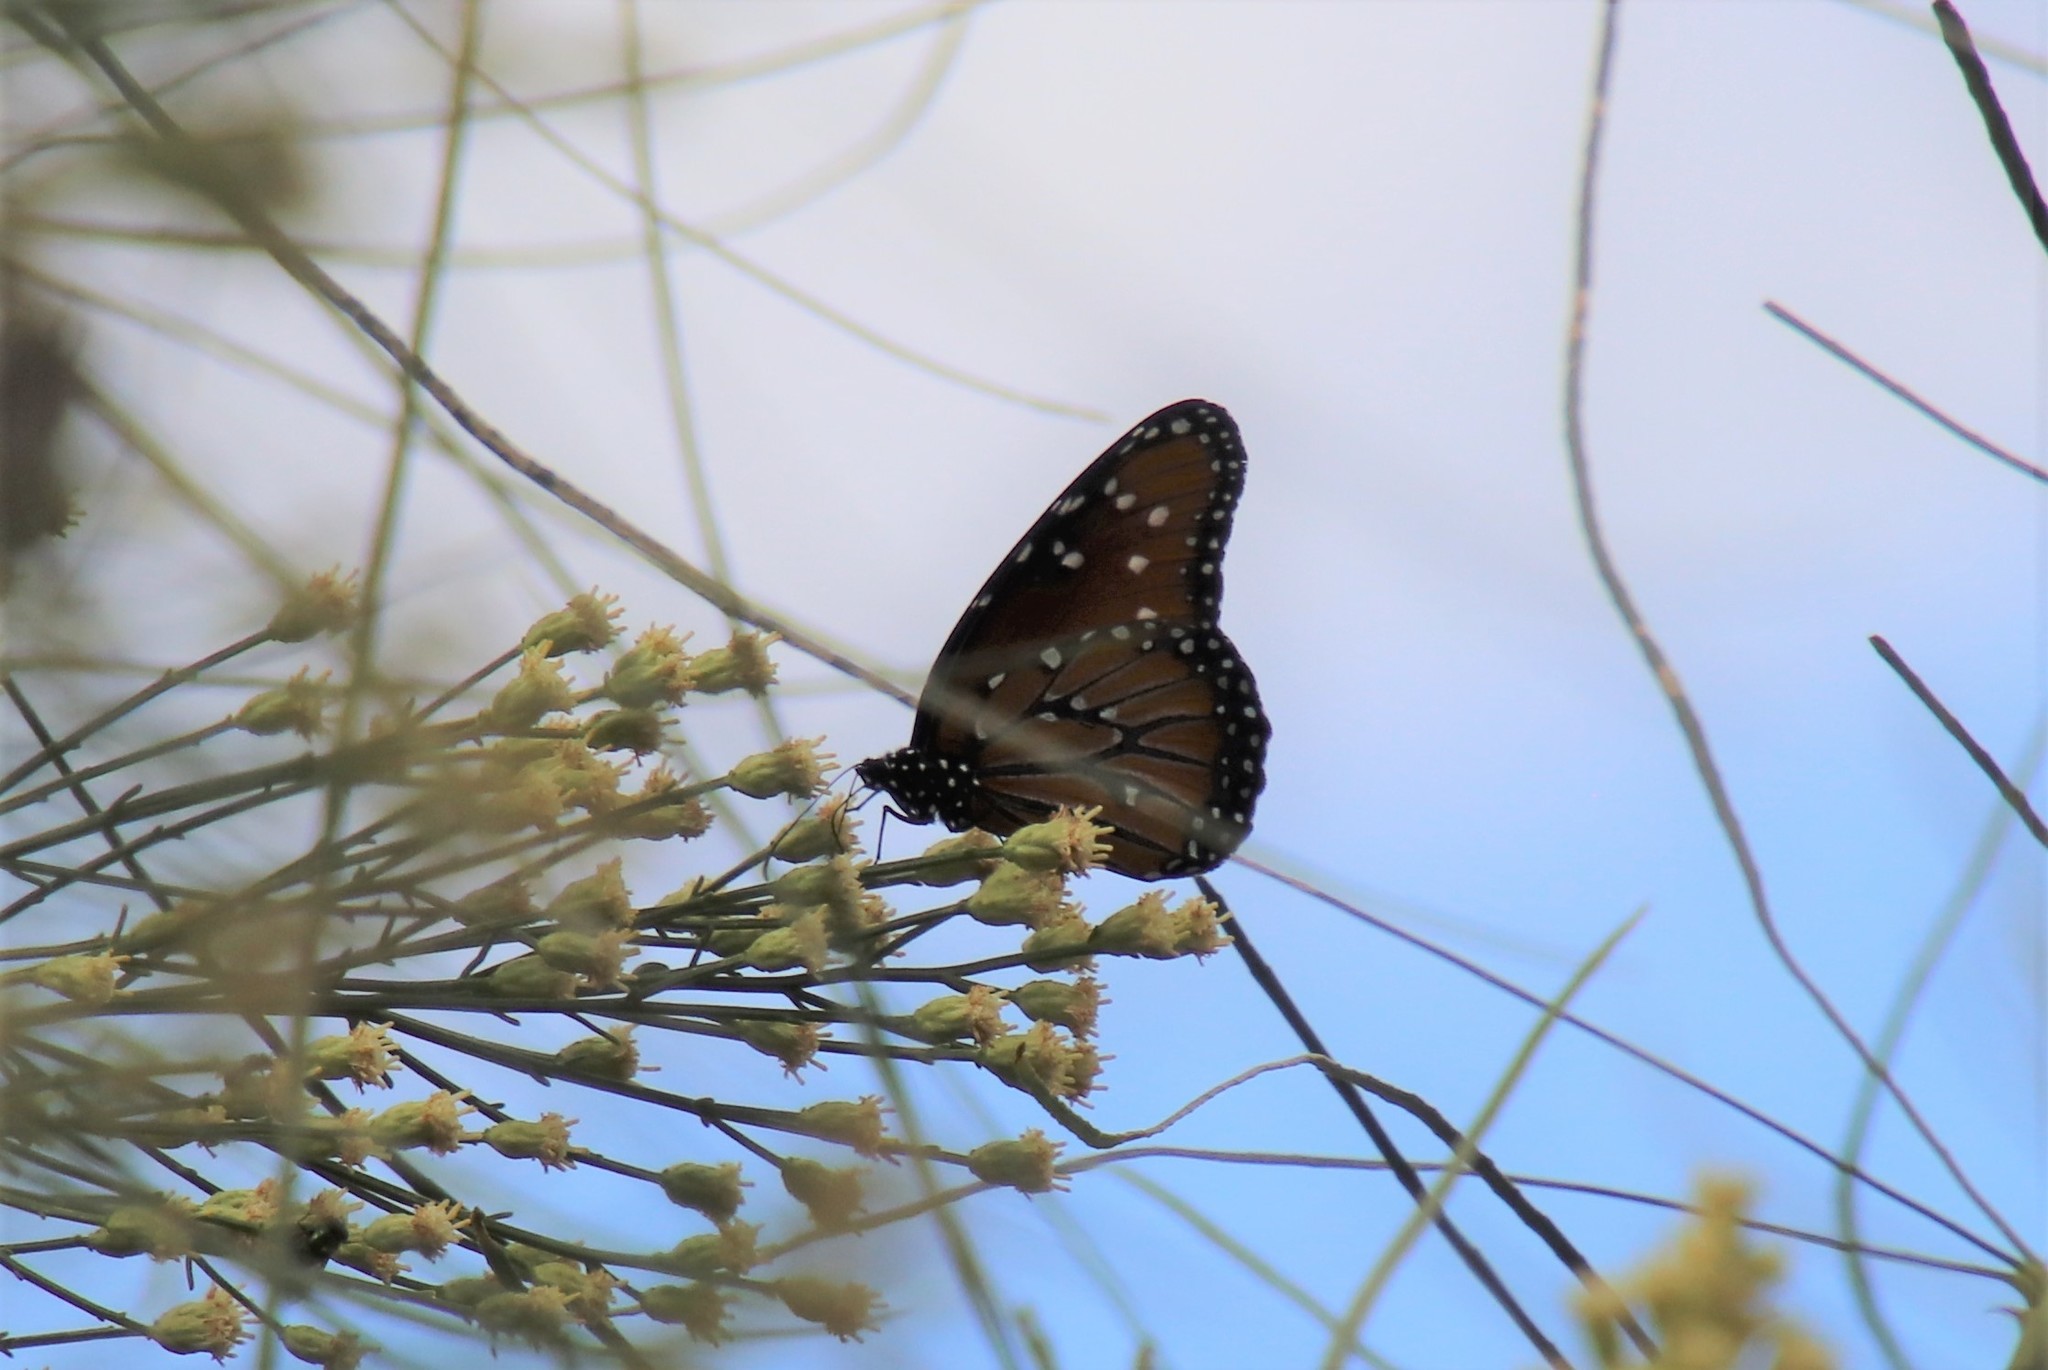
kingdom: Animalia
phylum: Arthropoda
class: Insecta
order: Lepidoptera
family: Nymphalidae
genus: Danaus
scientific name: Danaus gilippus
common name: Queen
